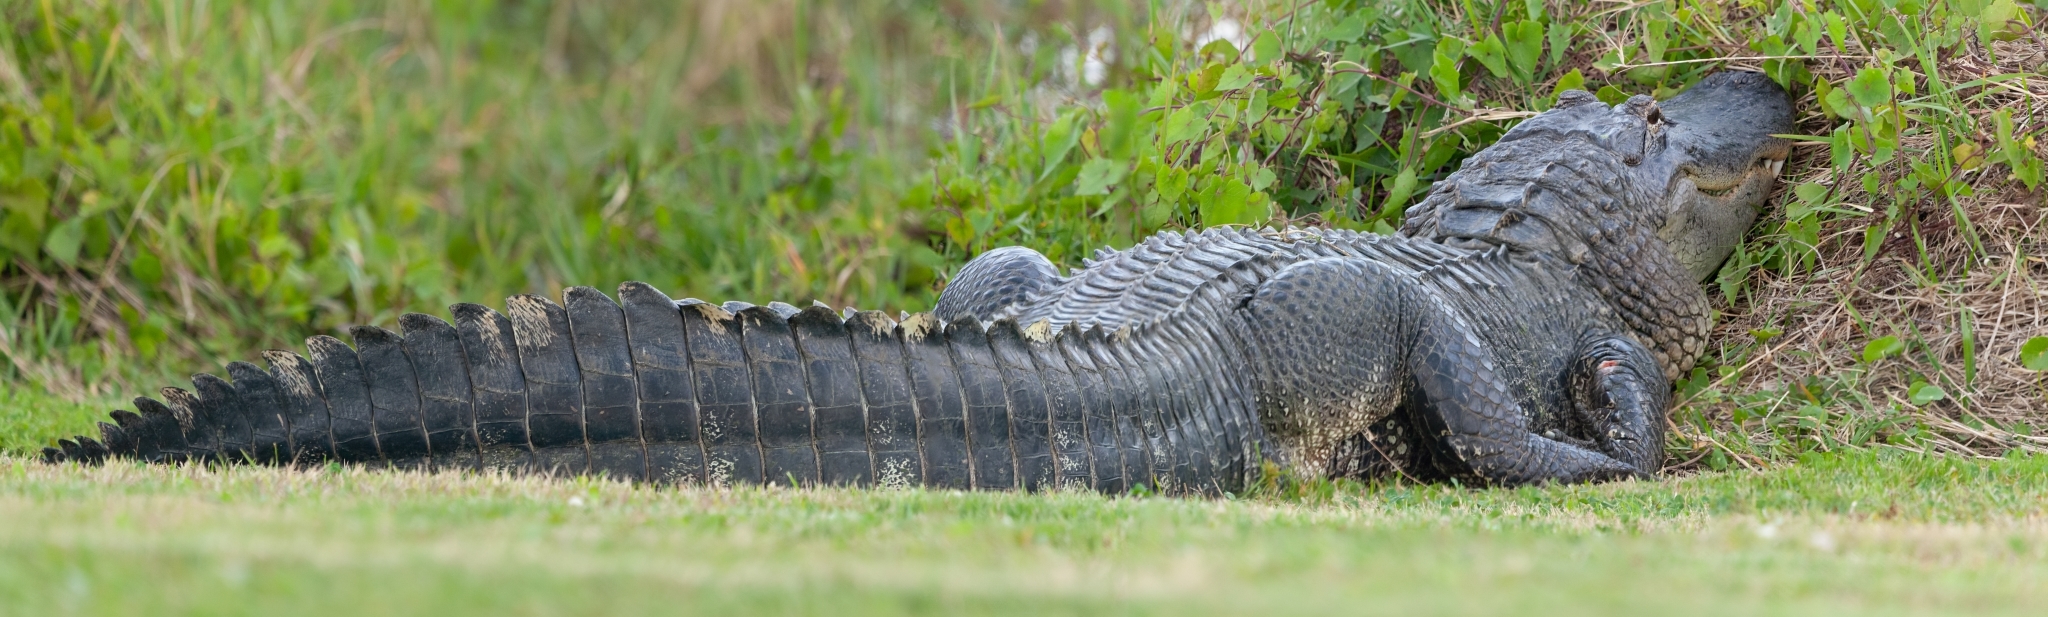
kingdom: Animalia
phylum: Chordata
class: Crocodylia
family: Alligatoridae
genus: Alligator
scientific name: Alligator mississippiensis
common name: American alligator
